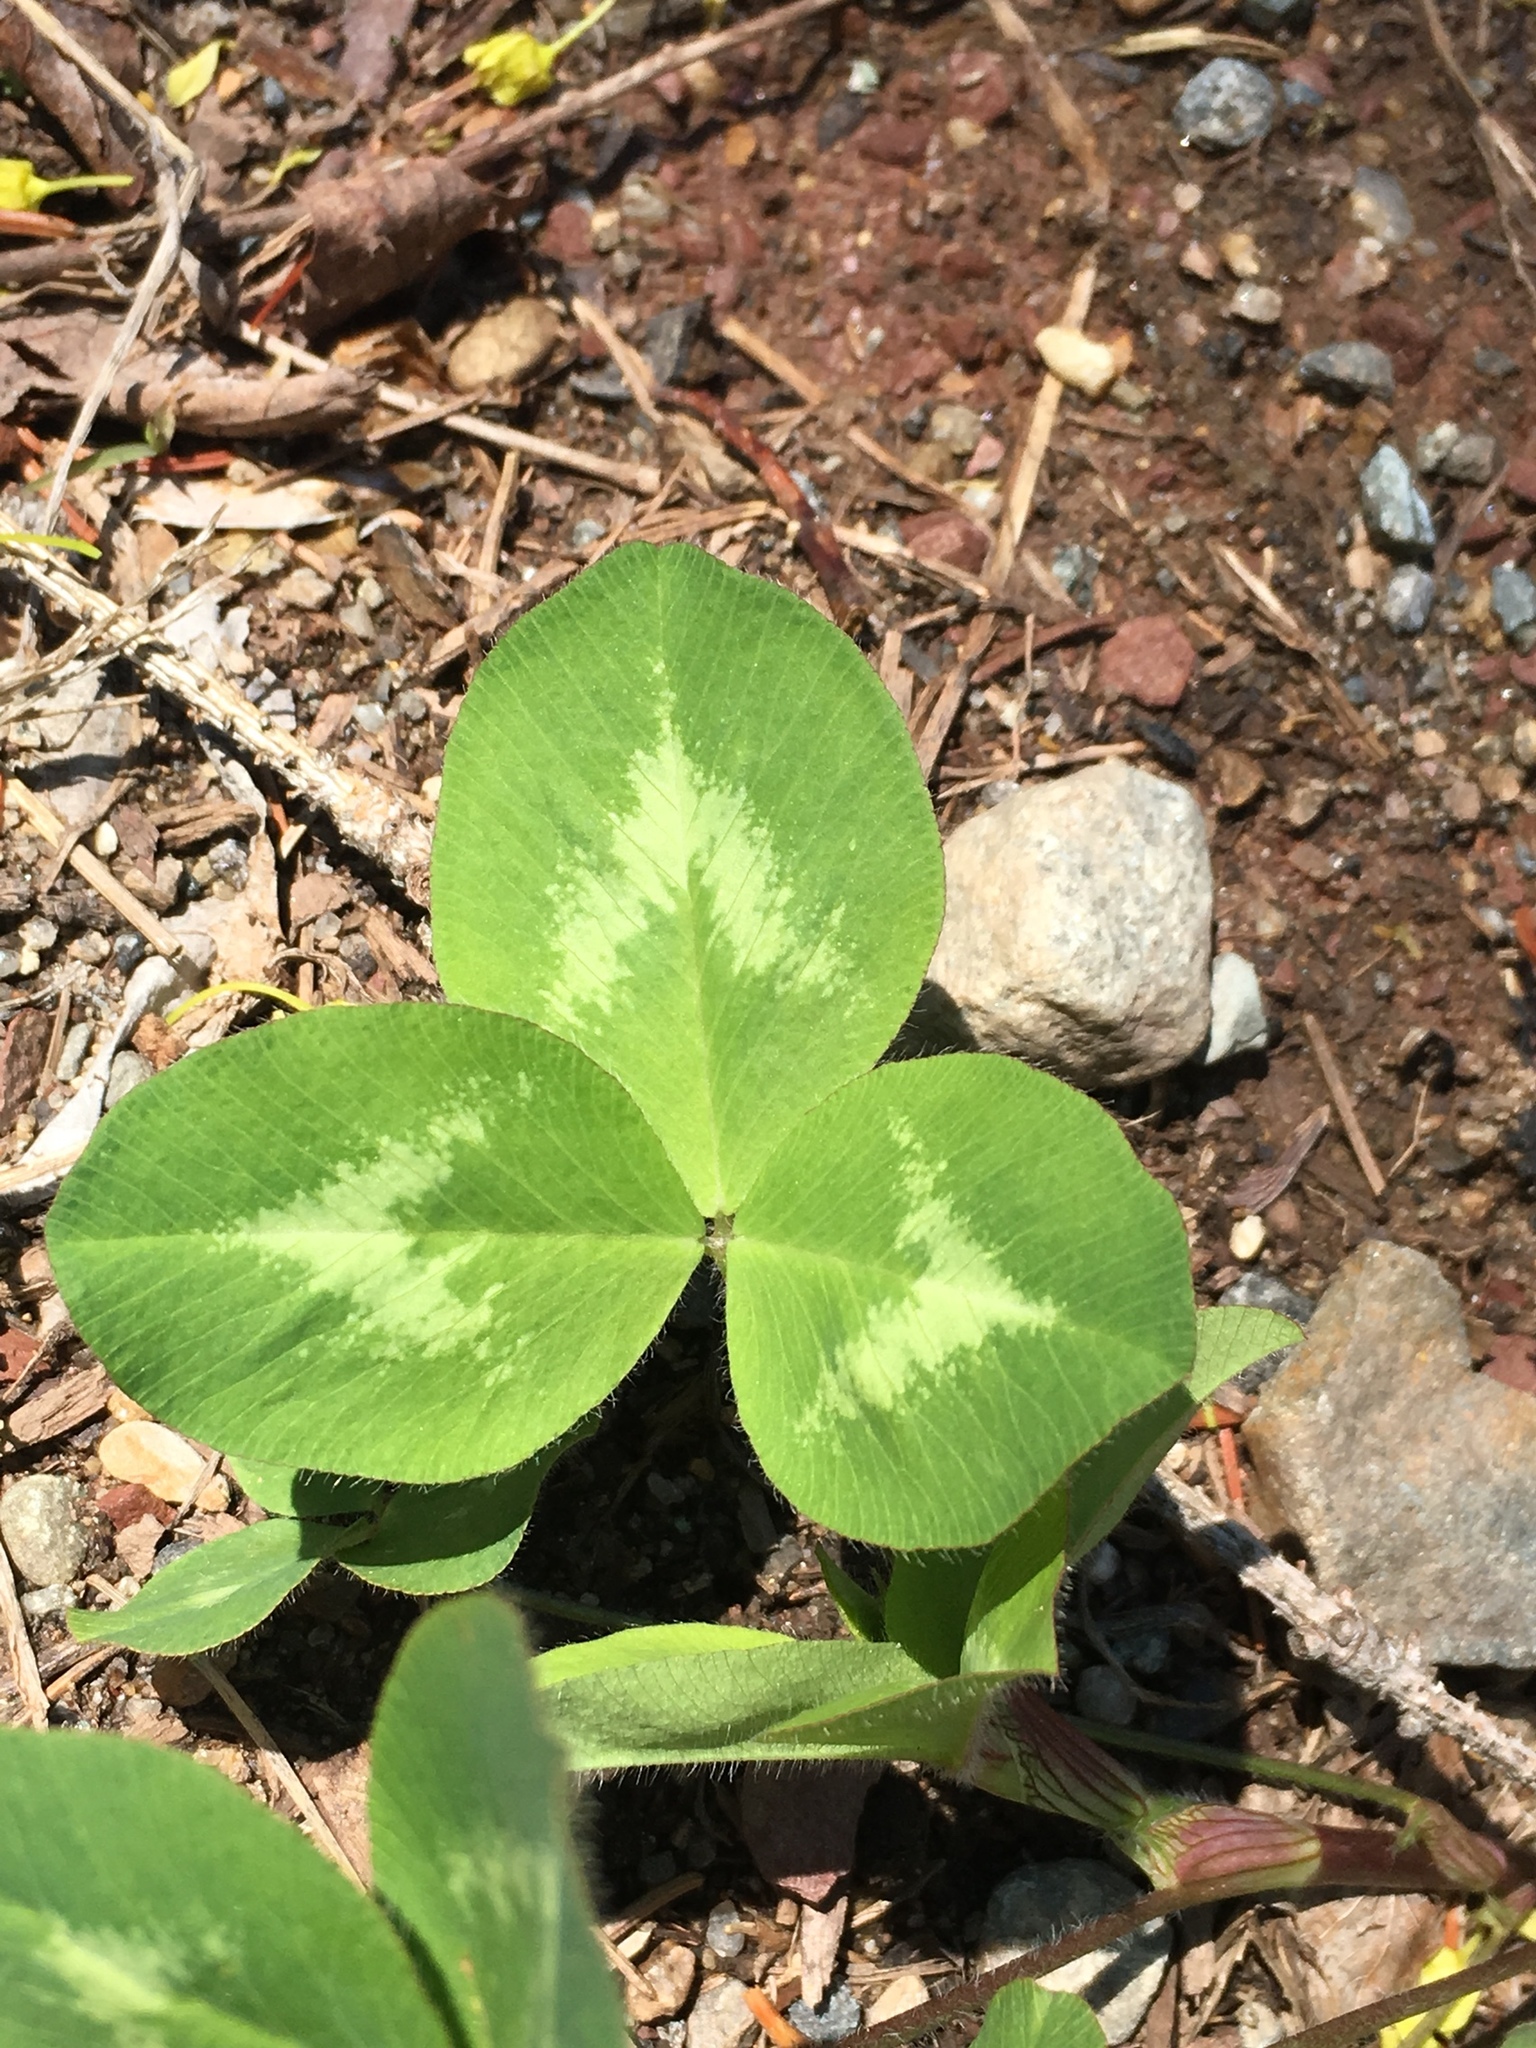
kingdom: Plantae
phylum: Tracheophyta
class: Magnoliopsida
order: Fabales
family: Fabaceae
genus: Trifolium
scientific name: Trifolium pratense
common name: Red clover
